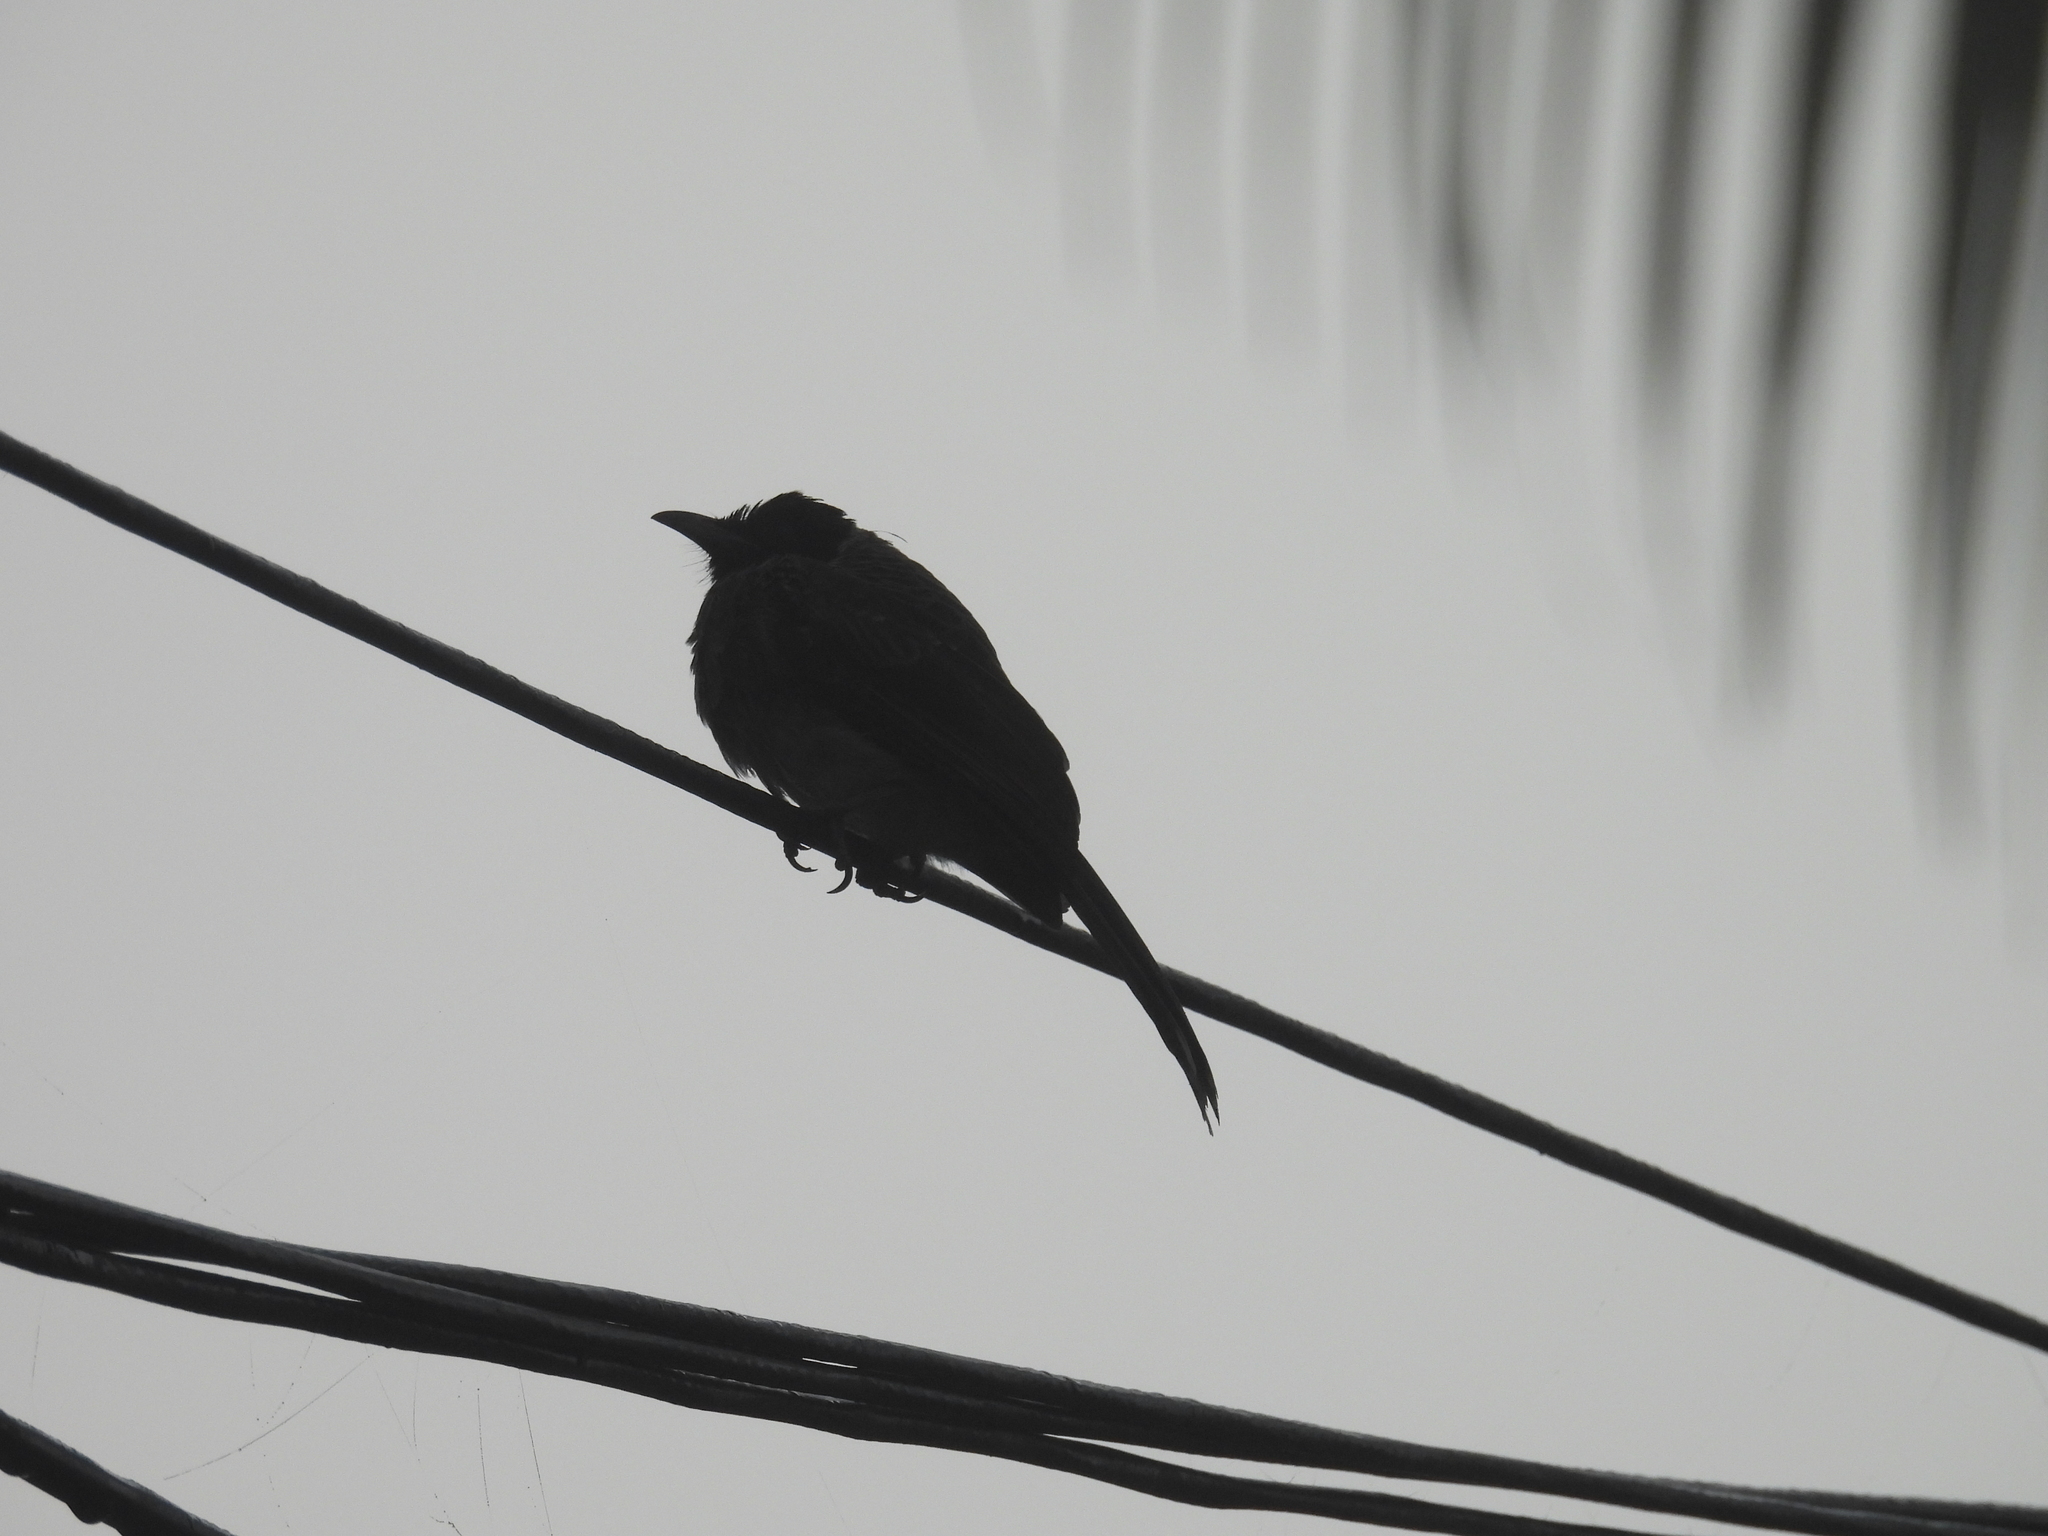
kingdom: Animalia
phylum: Chordata
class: Aves
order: Passeriformes
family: Pycnonotidae
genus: Pycnonotus
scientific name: Pycnonotus cafer
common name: Red-vented bulbul
